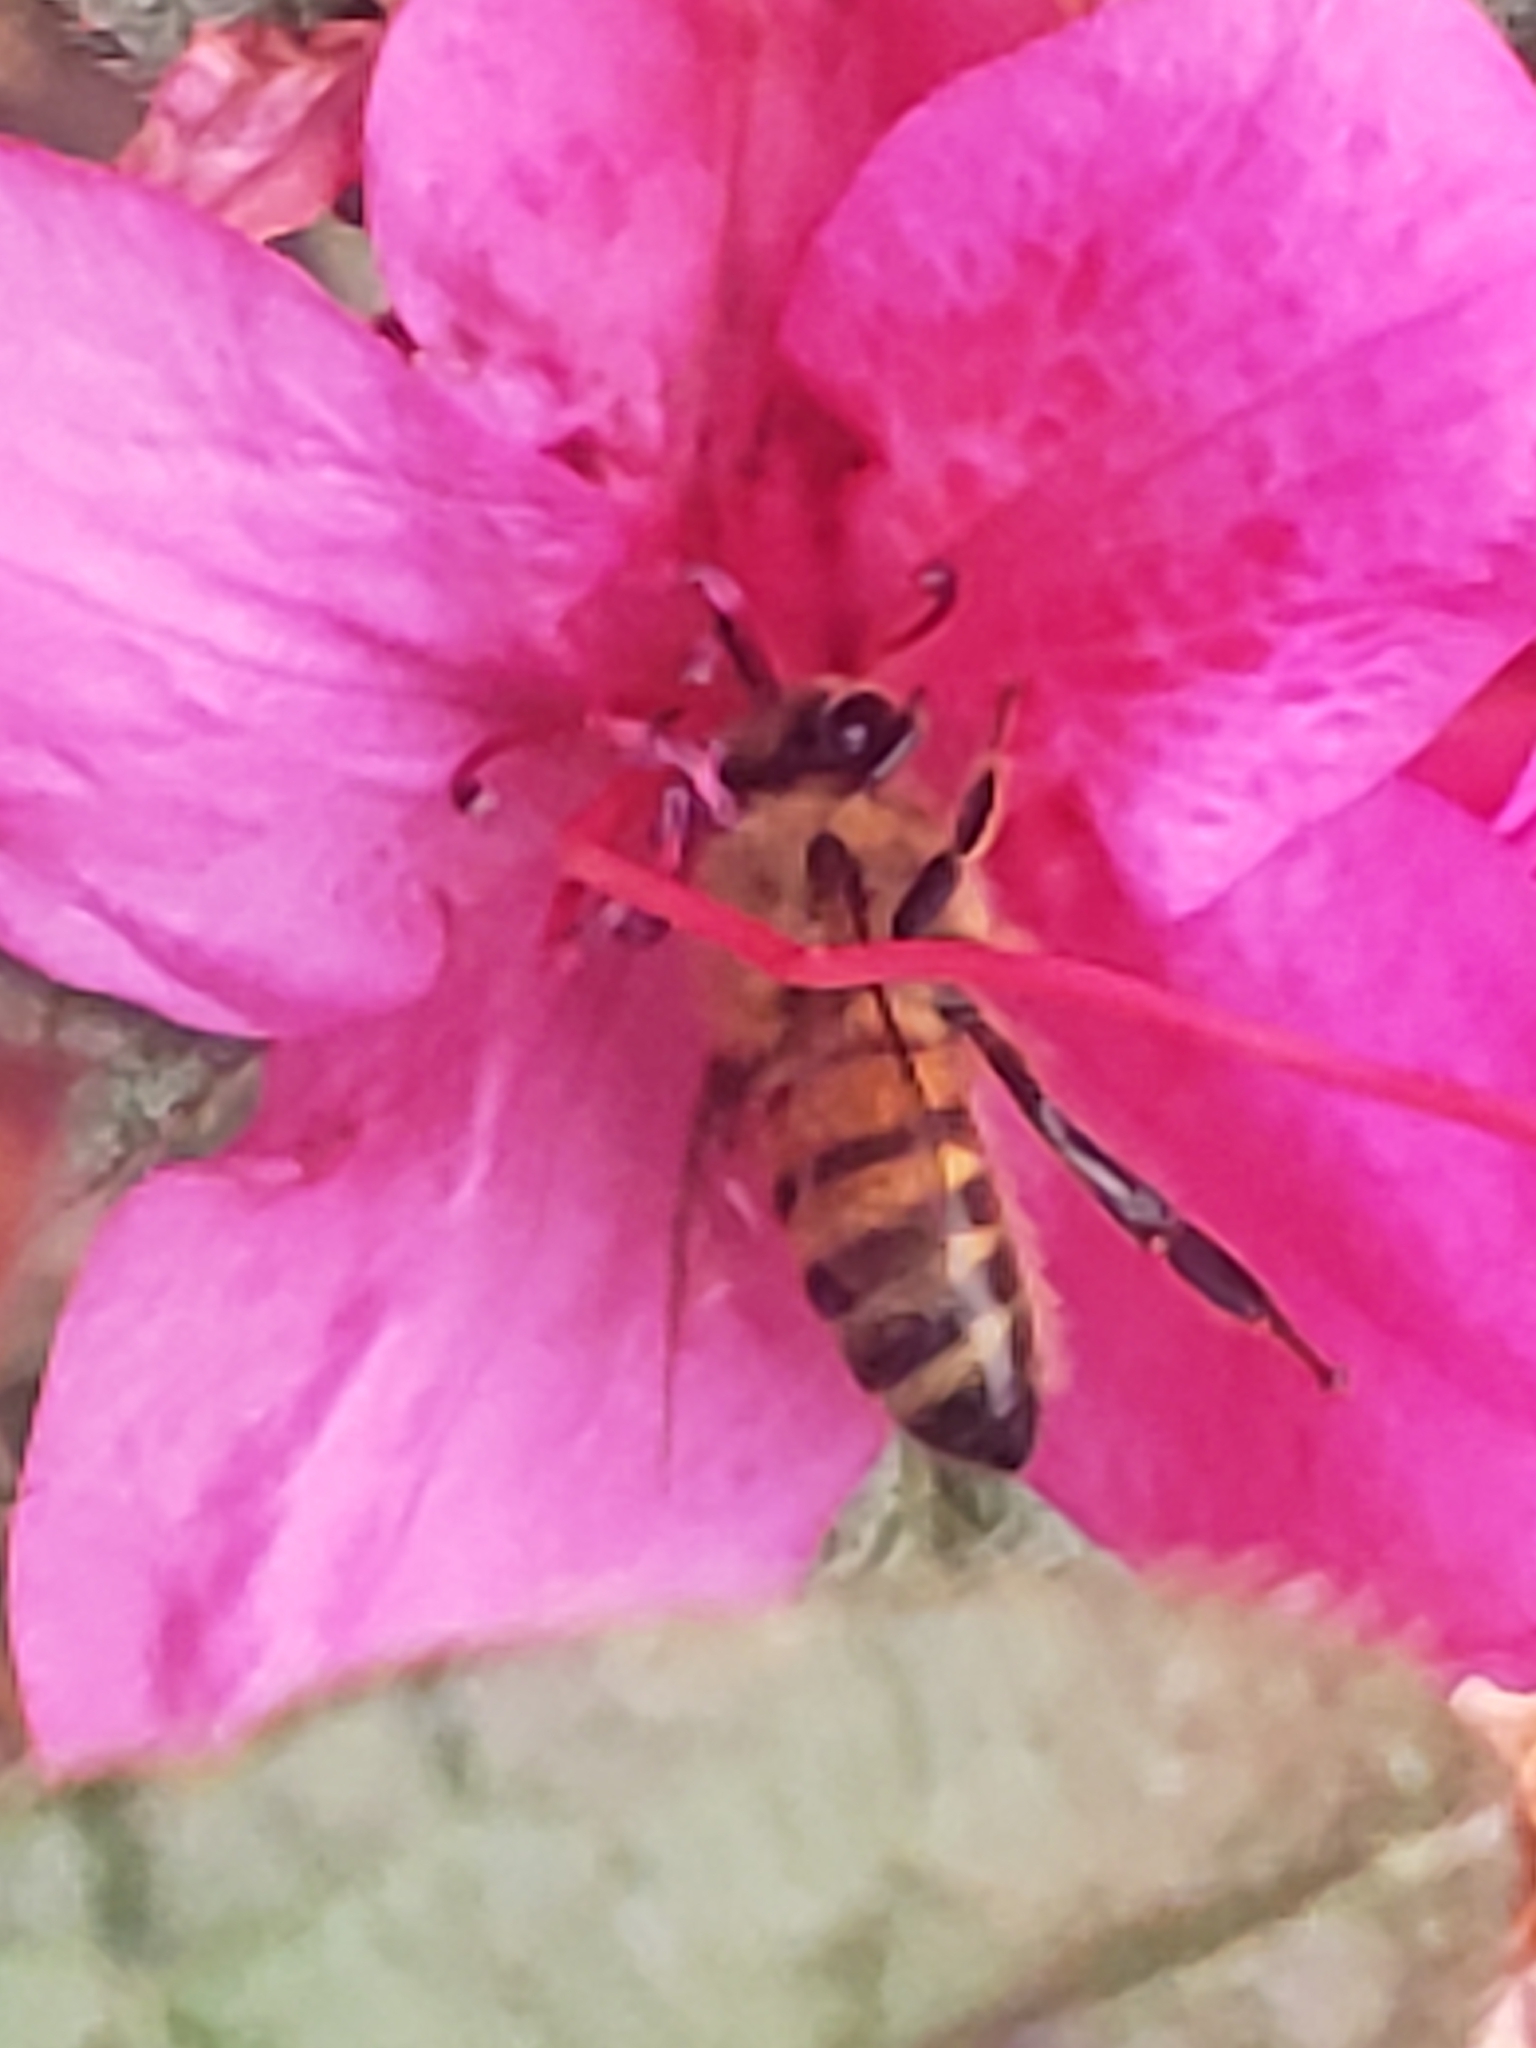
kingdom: Animalia
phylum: Arthropoda
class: Insecta
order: Hymenoptera
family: Apidae
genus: Apis
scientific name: Apis mellifera
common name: Honey bee
